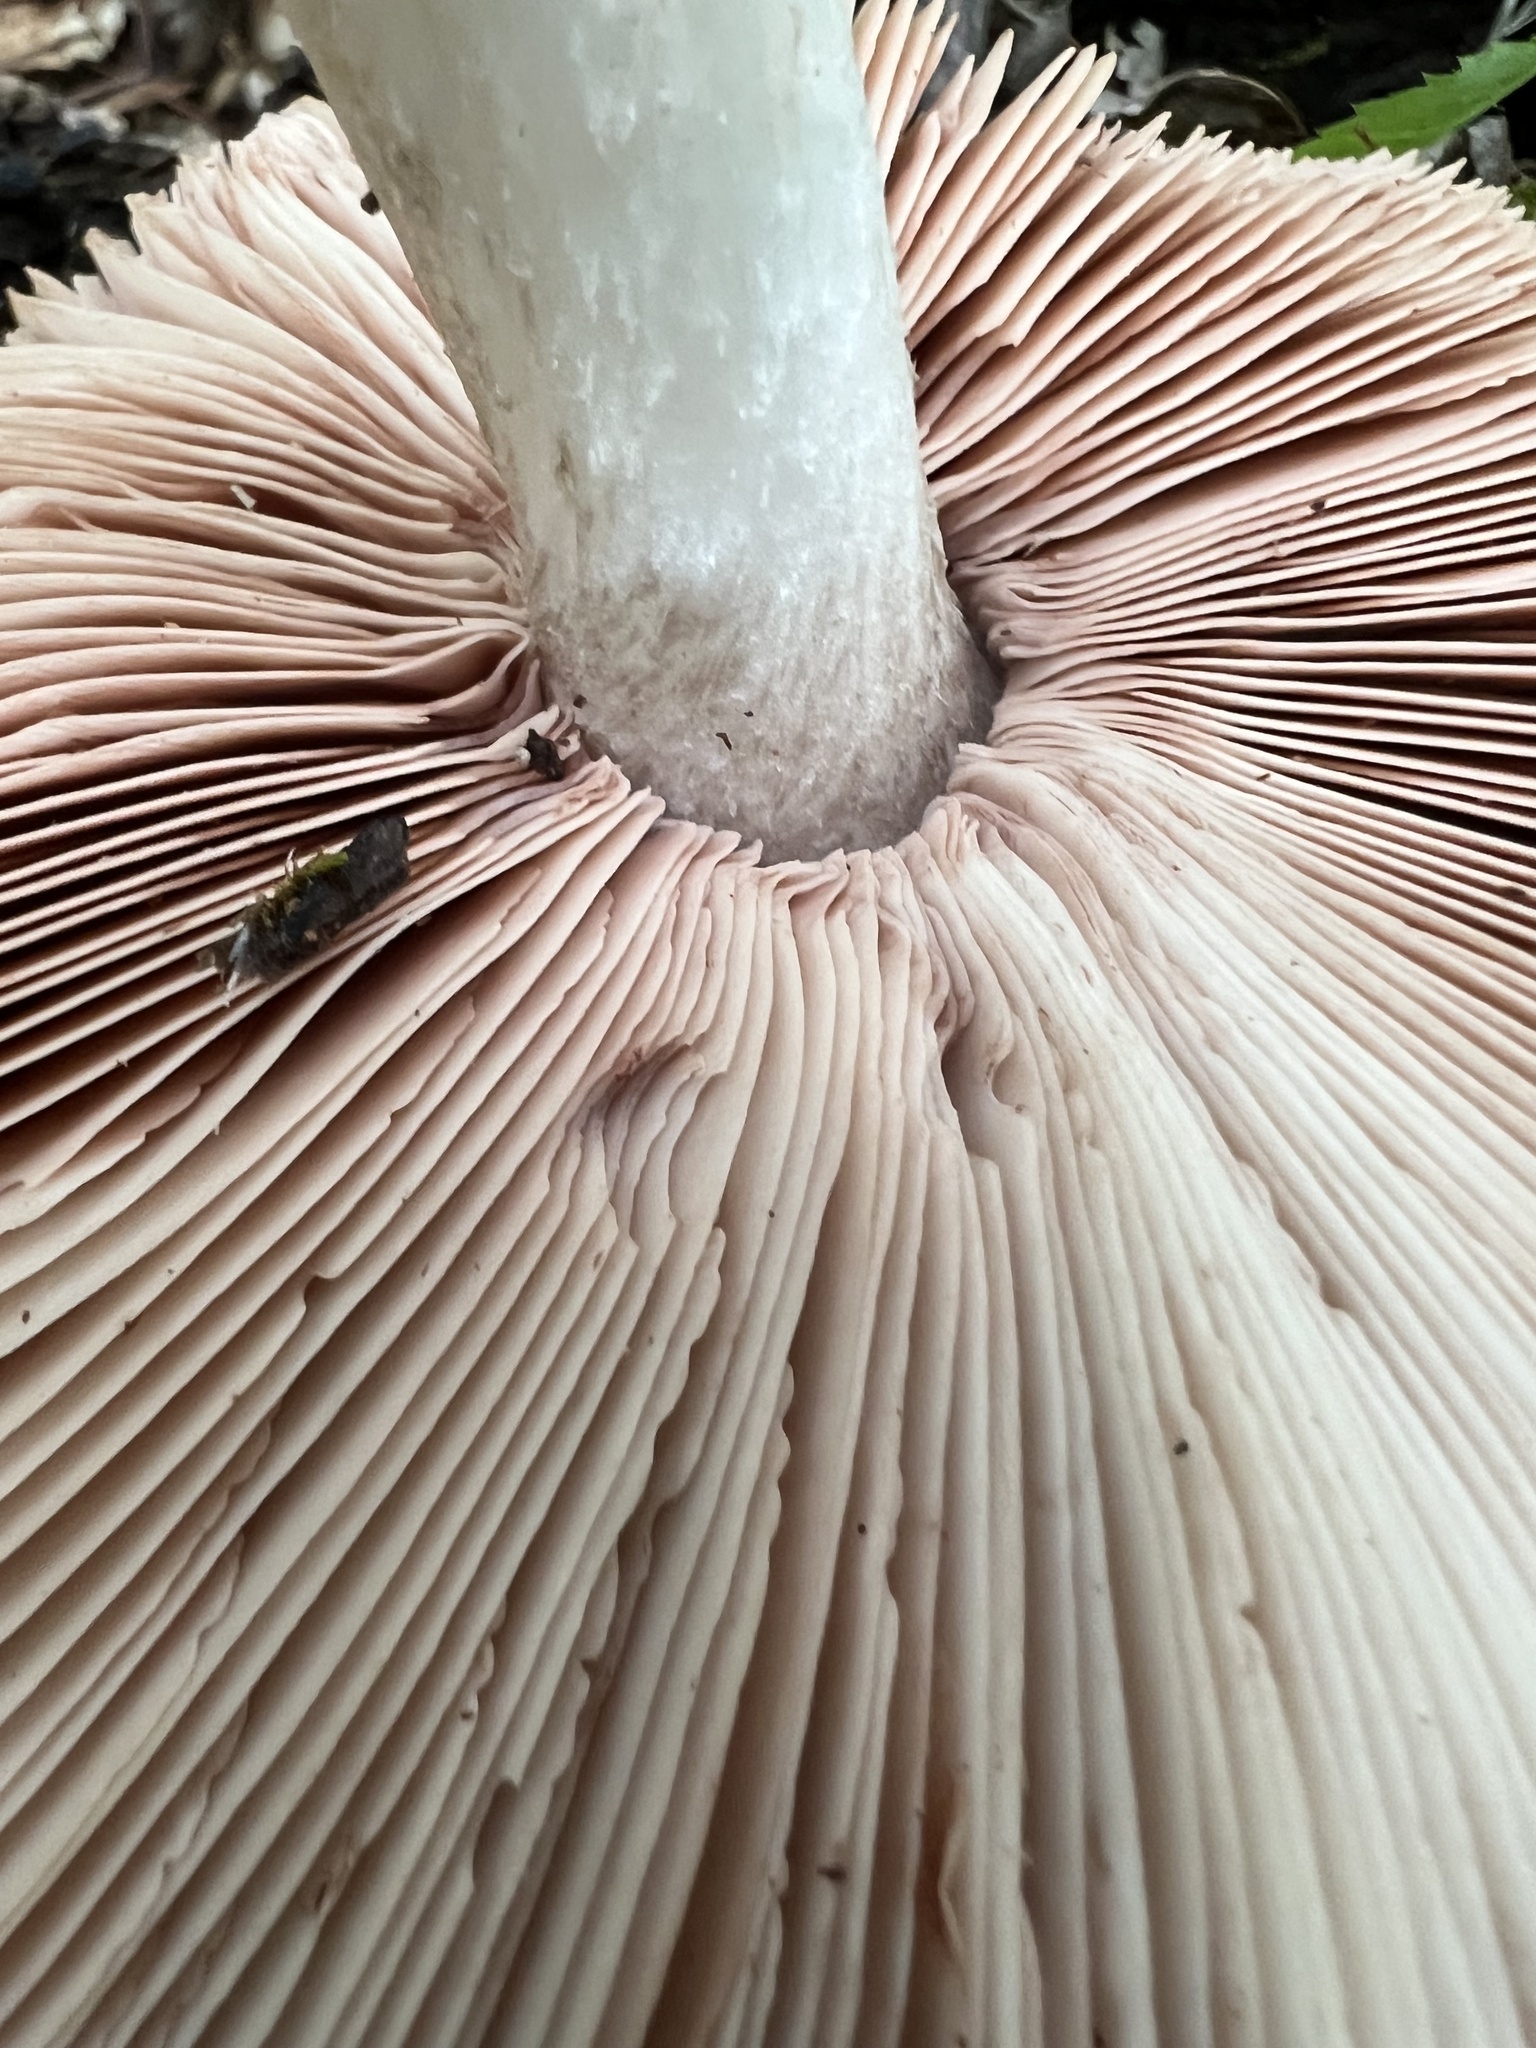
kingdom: Fungi
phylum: Basidiomycota
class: Agaricomycetes
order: Agaricales
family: Pluteaceae
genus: Pluteus
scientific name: Pluteus cervinus
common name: Deer shield
